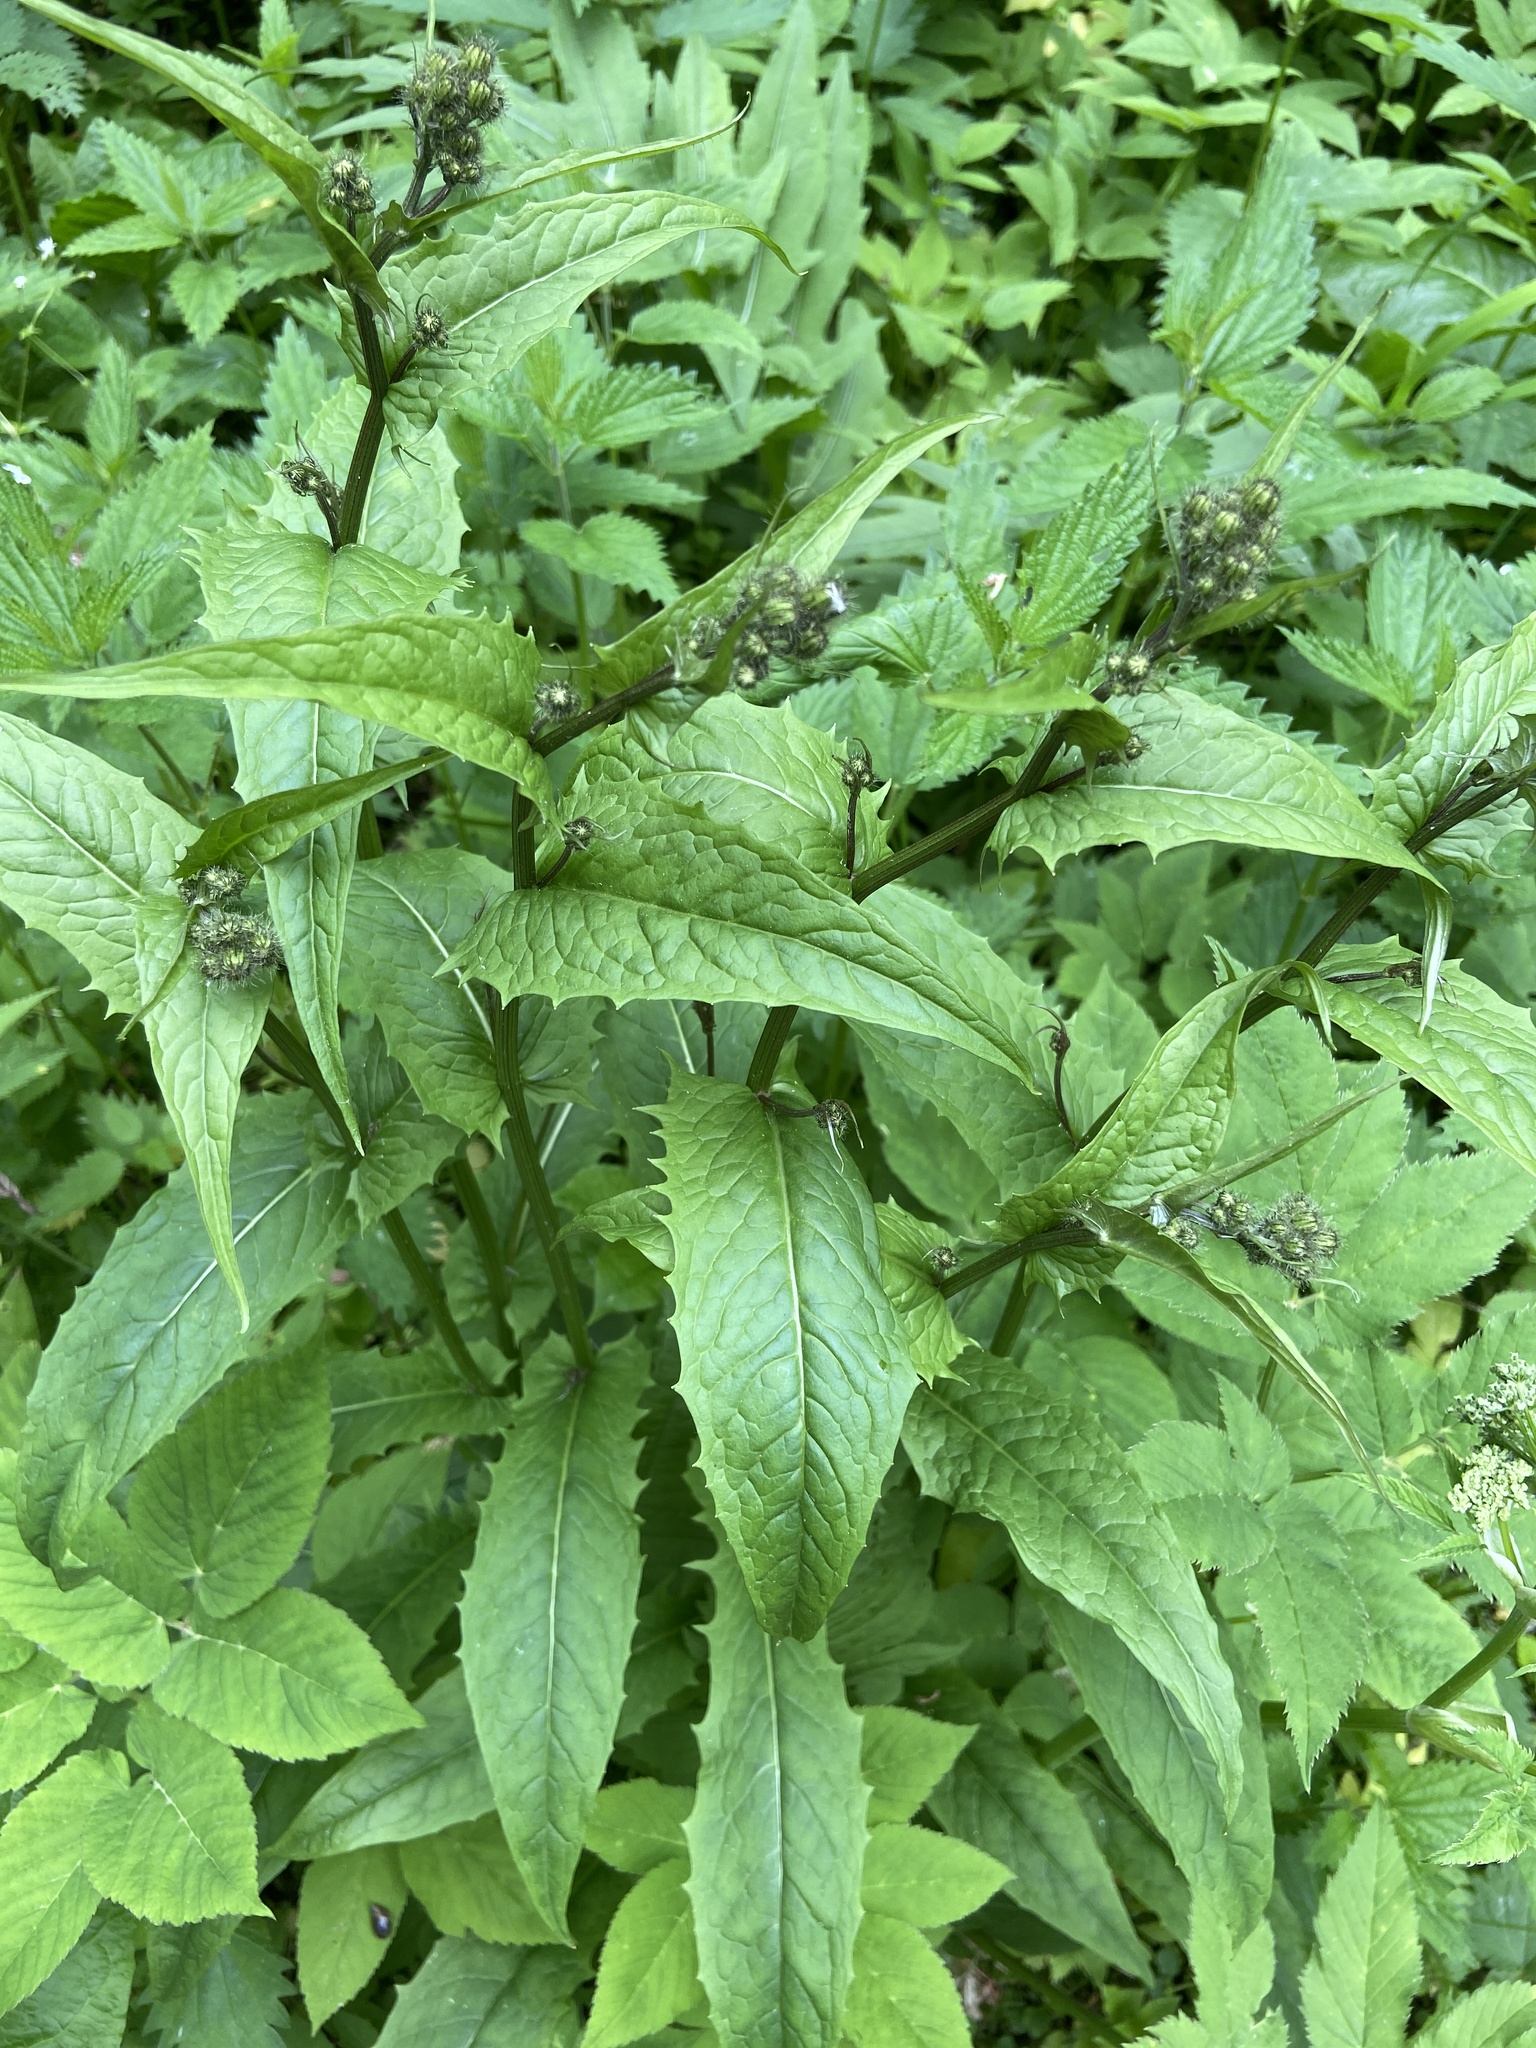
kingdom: Plantae
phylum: Tracheophyta
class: Magnoliopsida
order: Asterales
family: Asteraceae
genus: Crepis
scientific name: Crepis paludosa
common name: Marsh hawk's-beard
